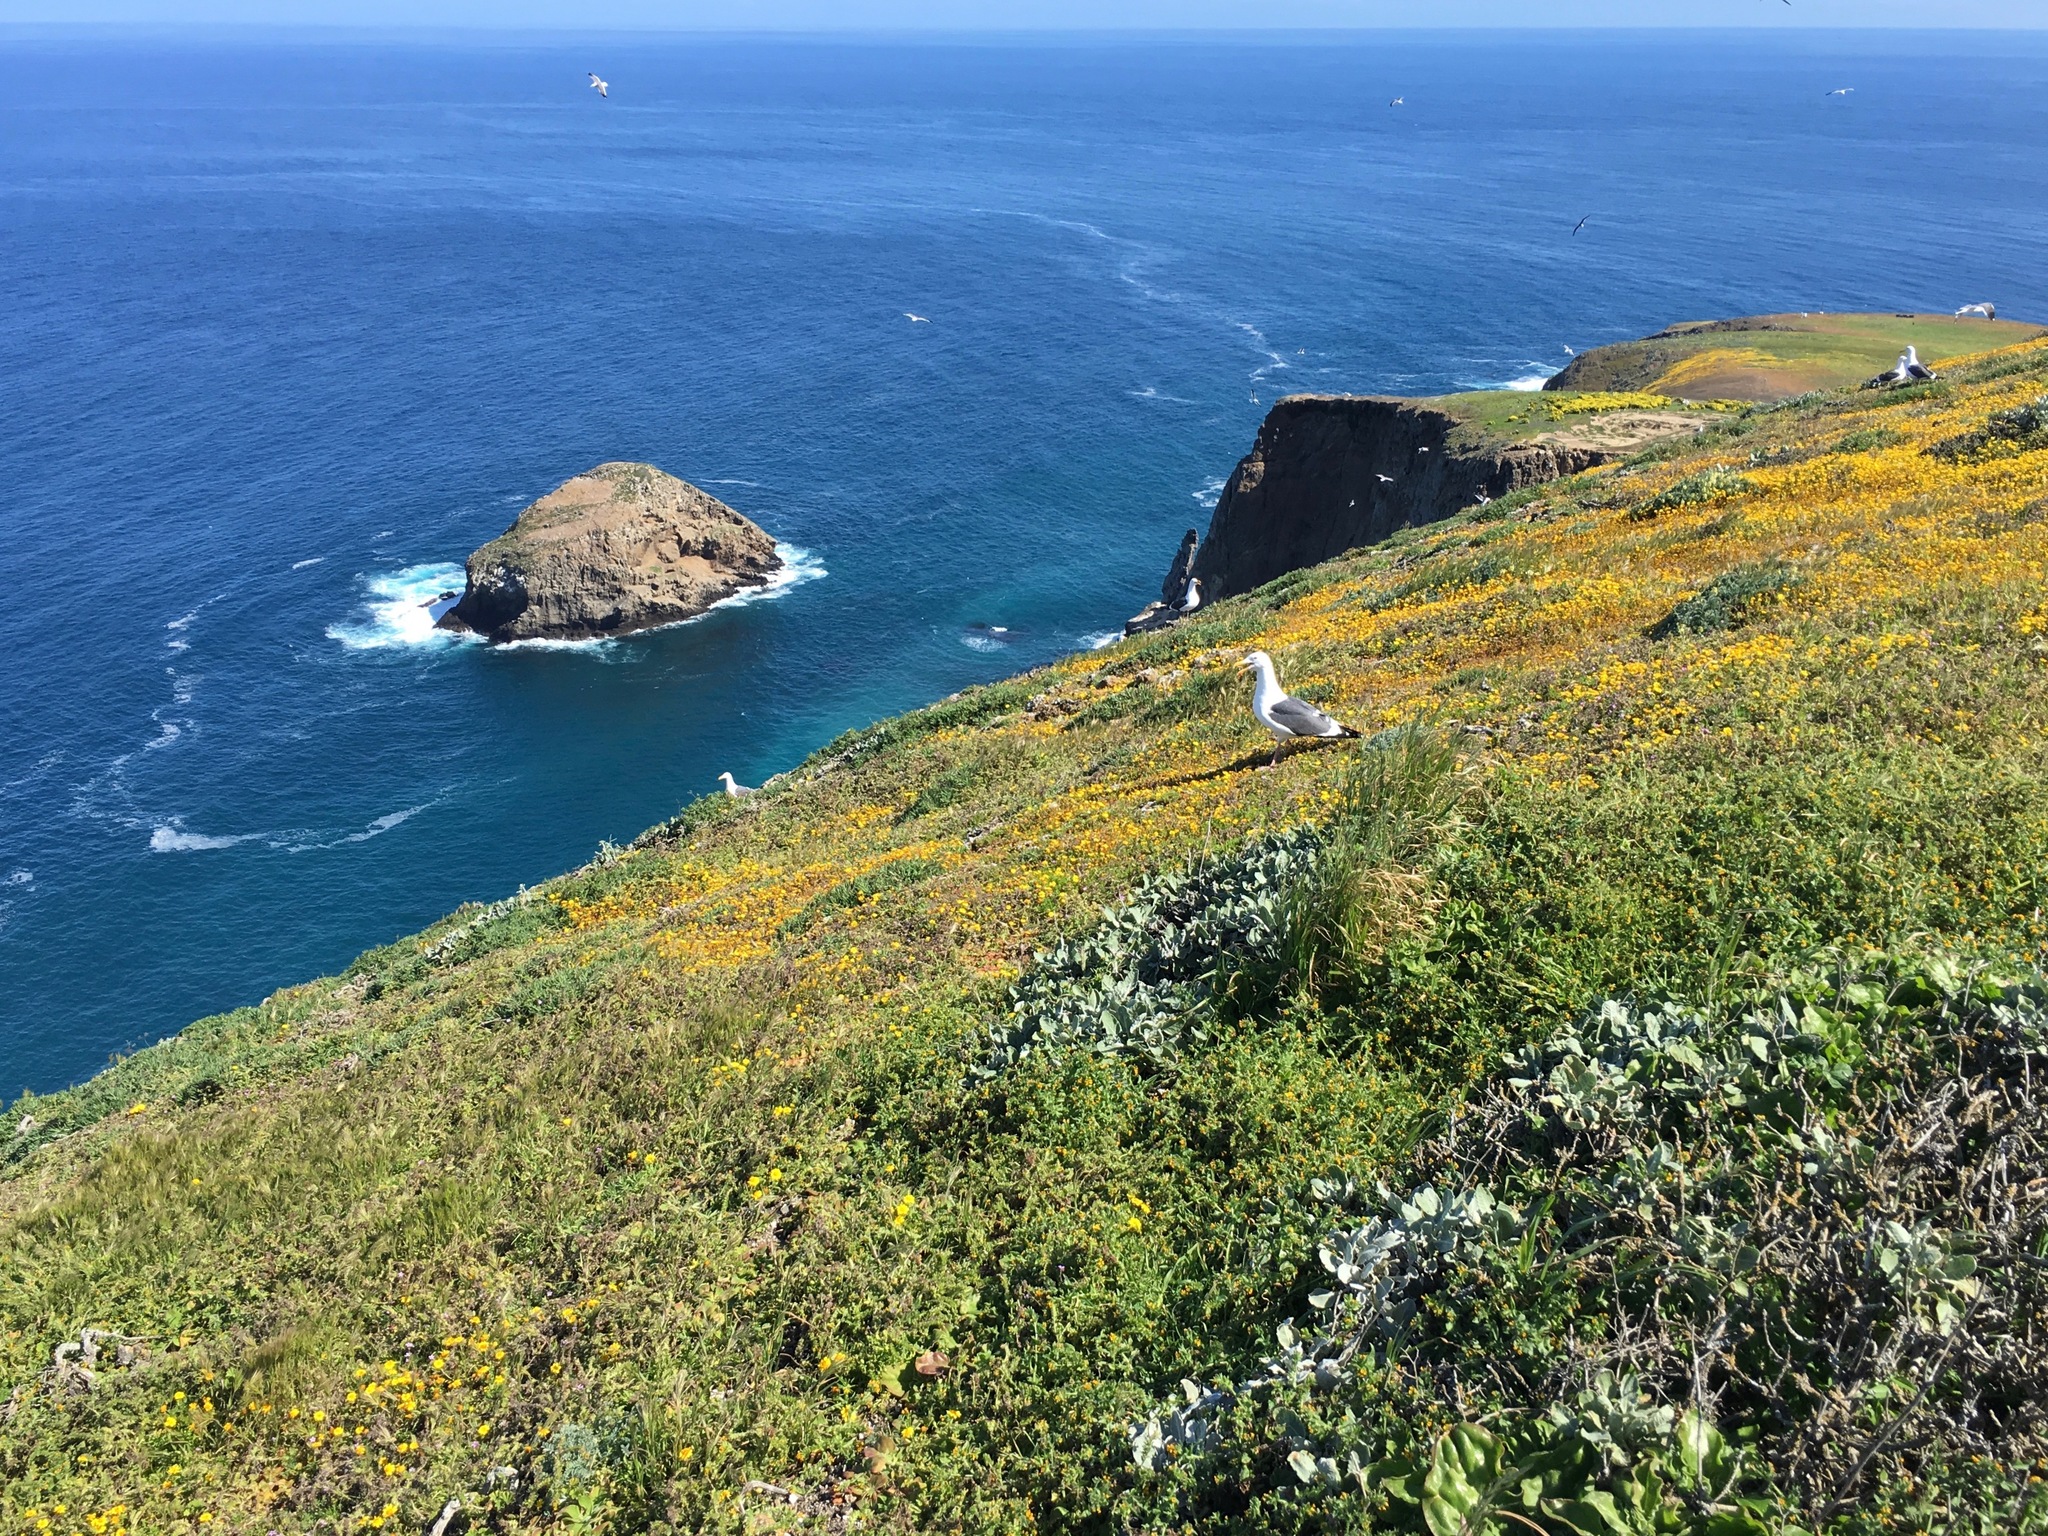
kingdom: Plantae
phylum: Tracheophyta
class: Magnoliopsida
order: Asterales
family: Asteraceae
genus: Lasthenia
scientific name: Lasthenia gracilis
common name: Common goldfields
